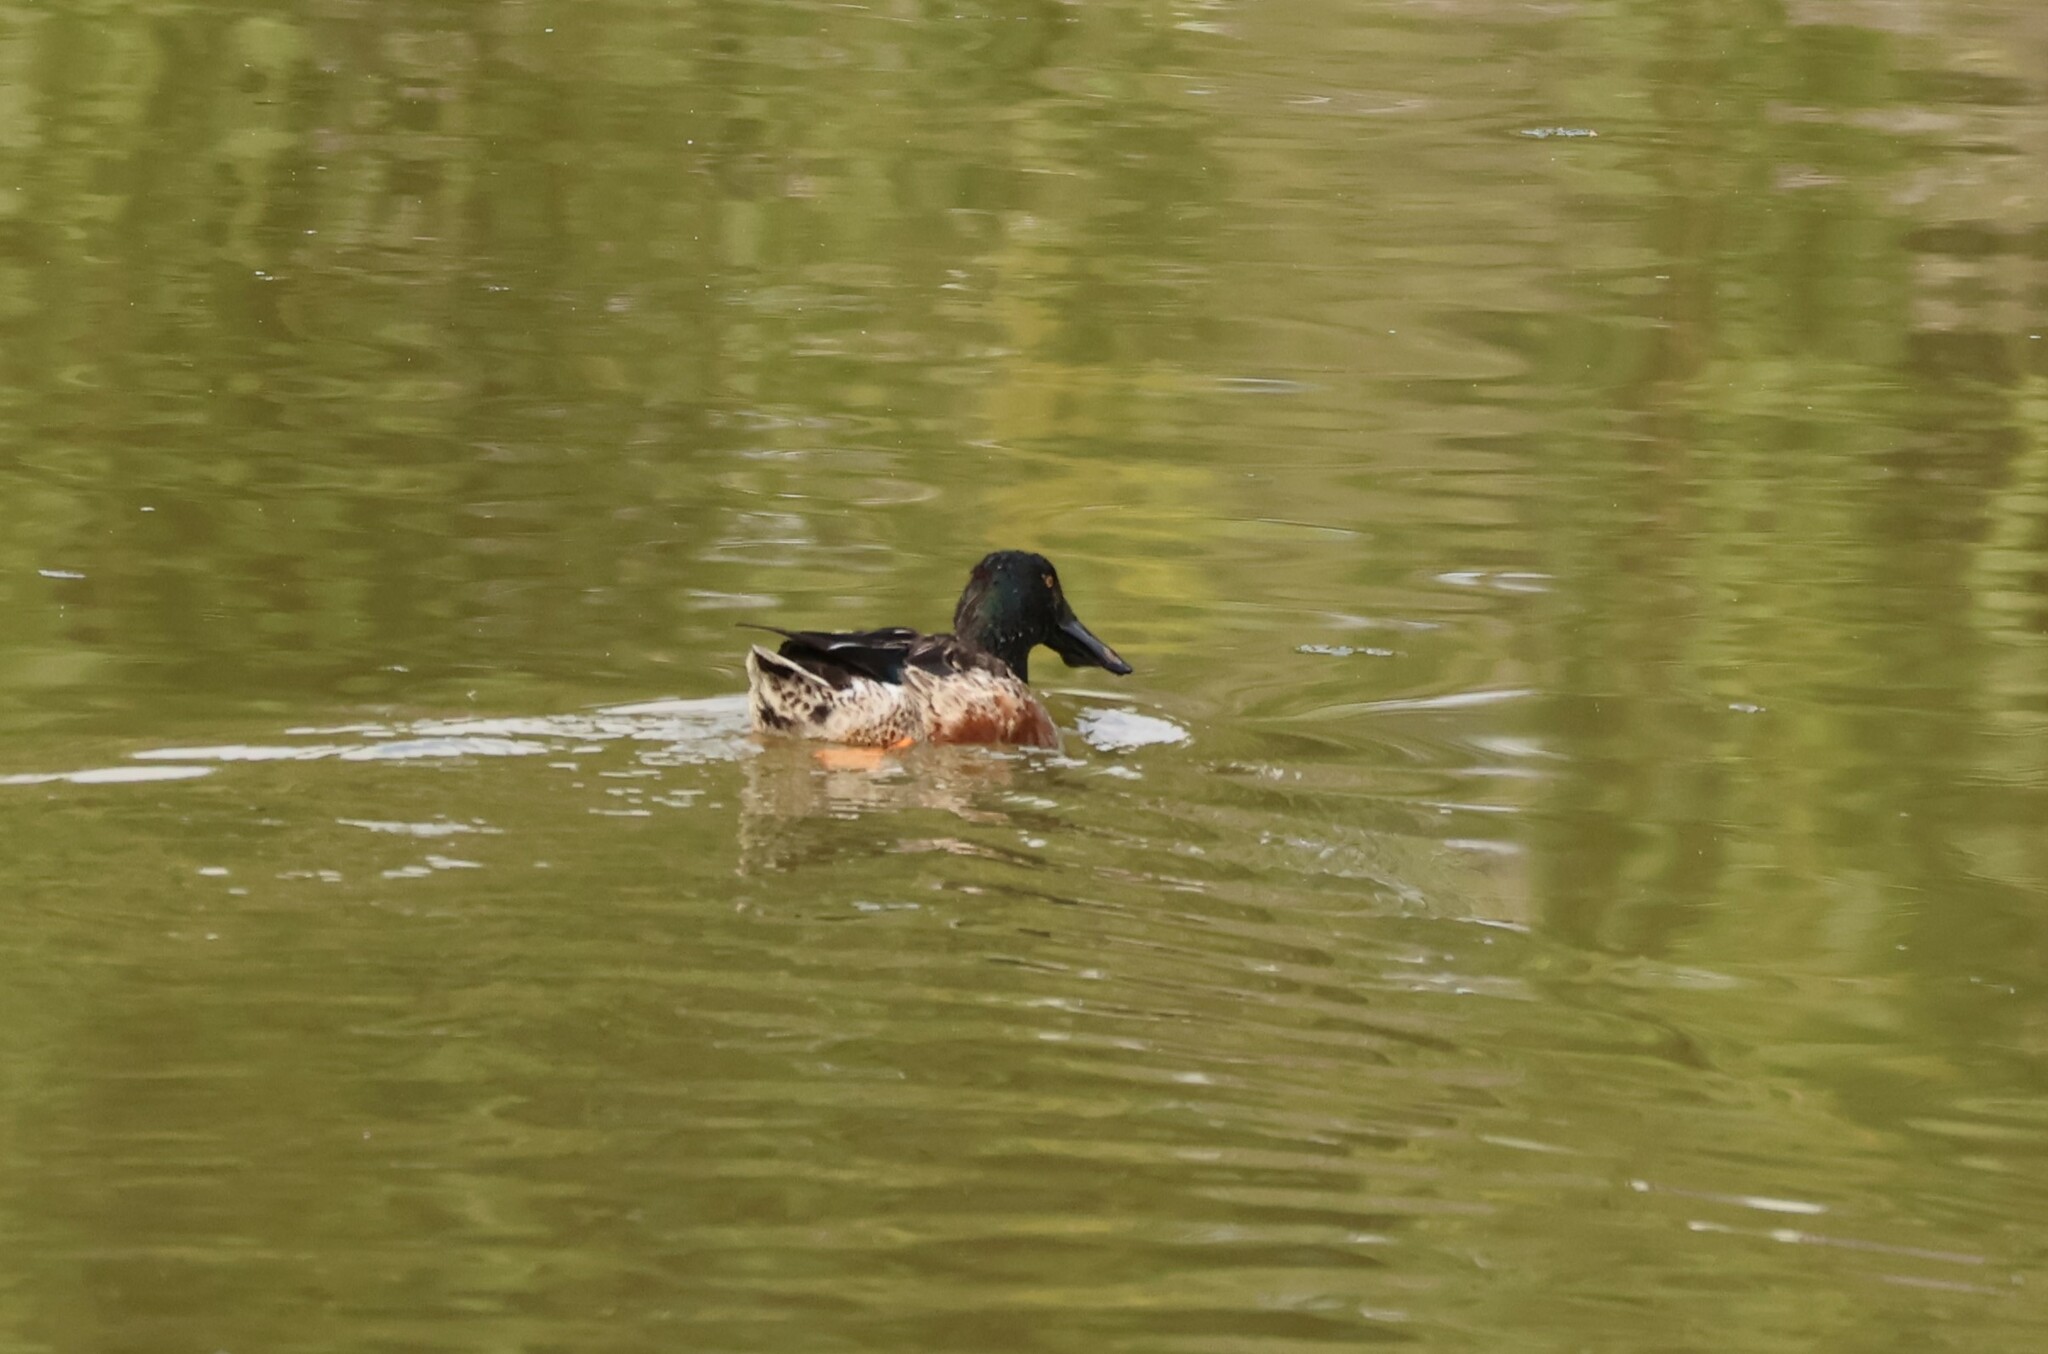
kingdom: Animalia
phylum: Chordata
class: Aves
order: Anseriformes
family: Anatidae
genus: Spatula
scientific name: Spatula clypeata
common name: Northern shoveler
